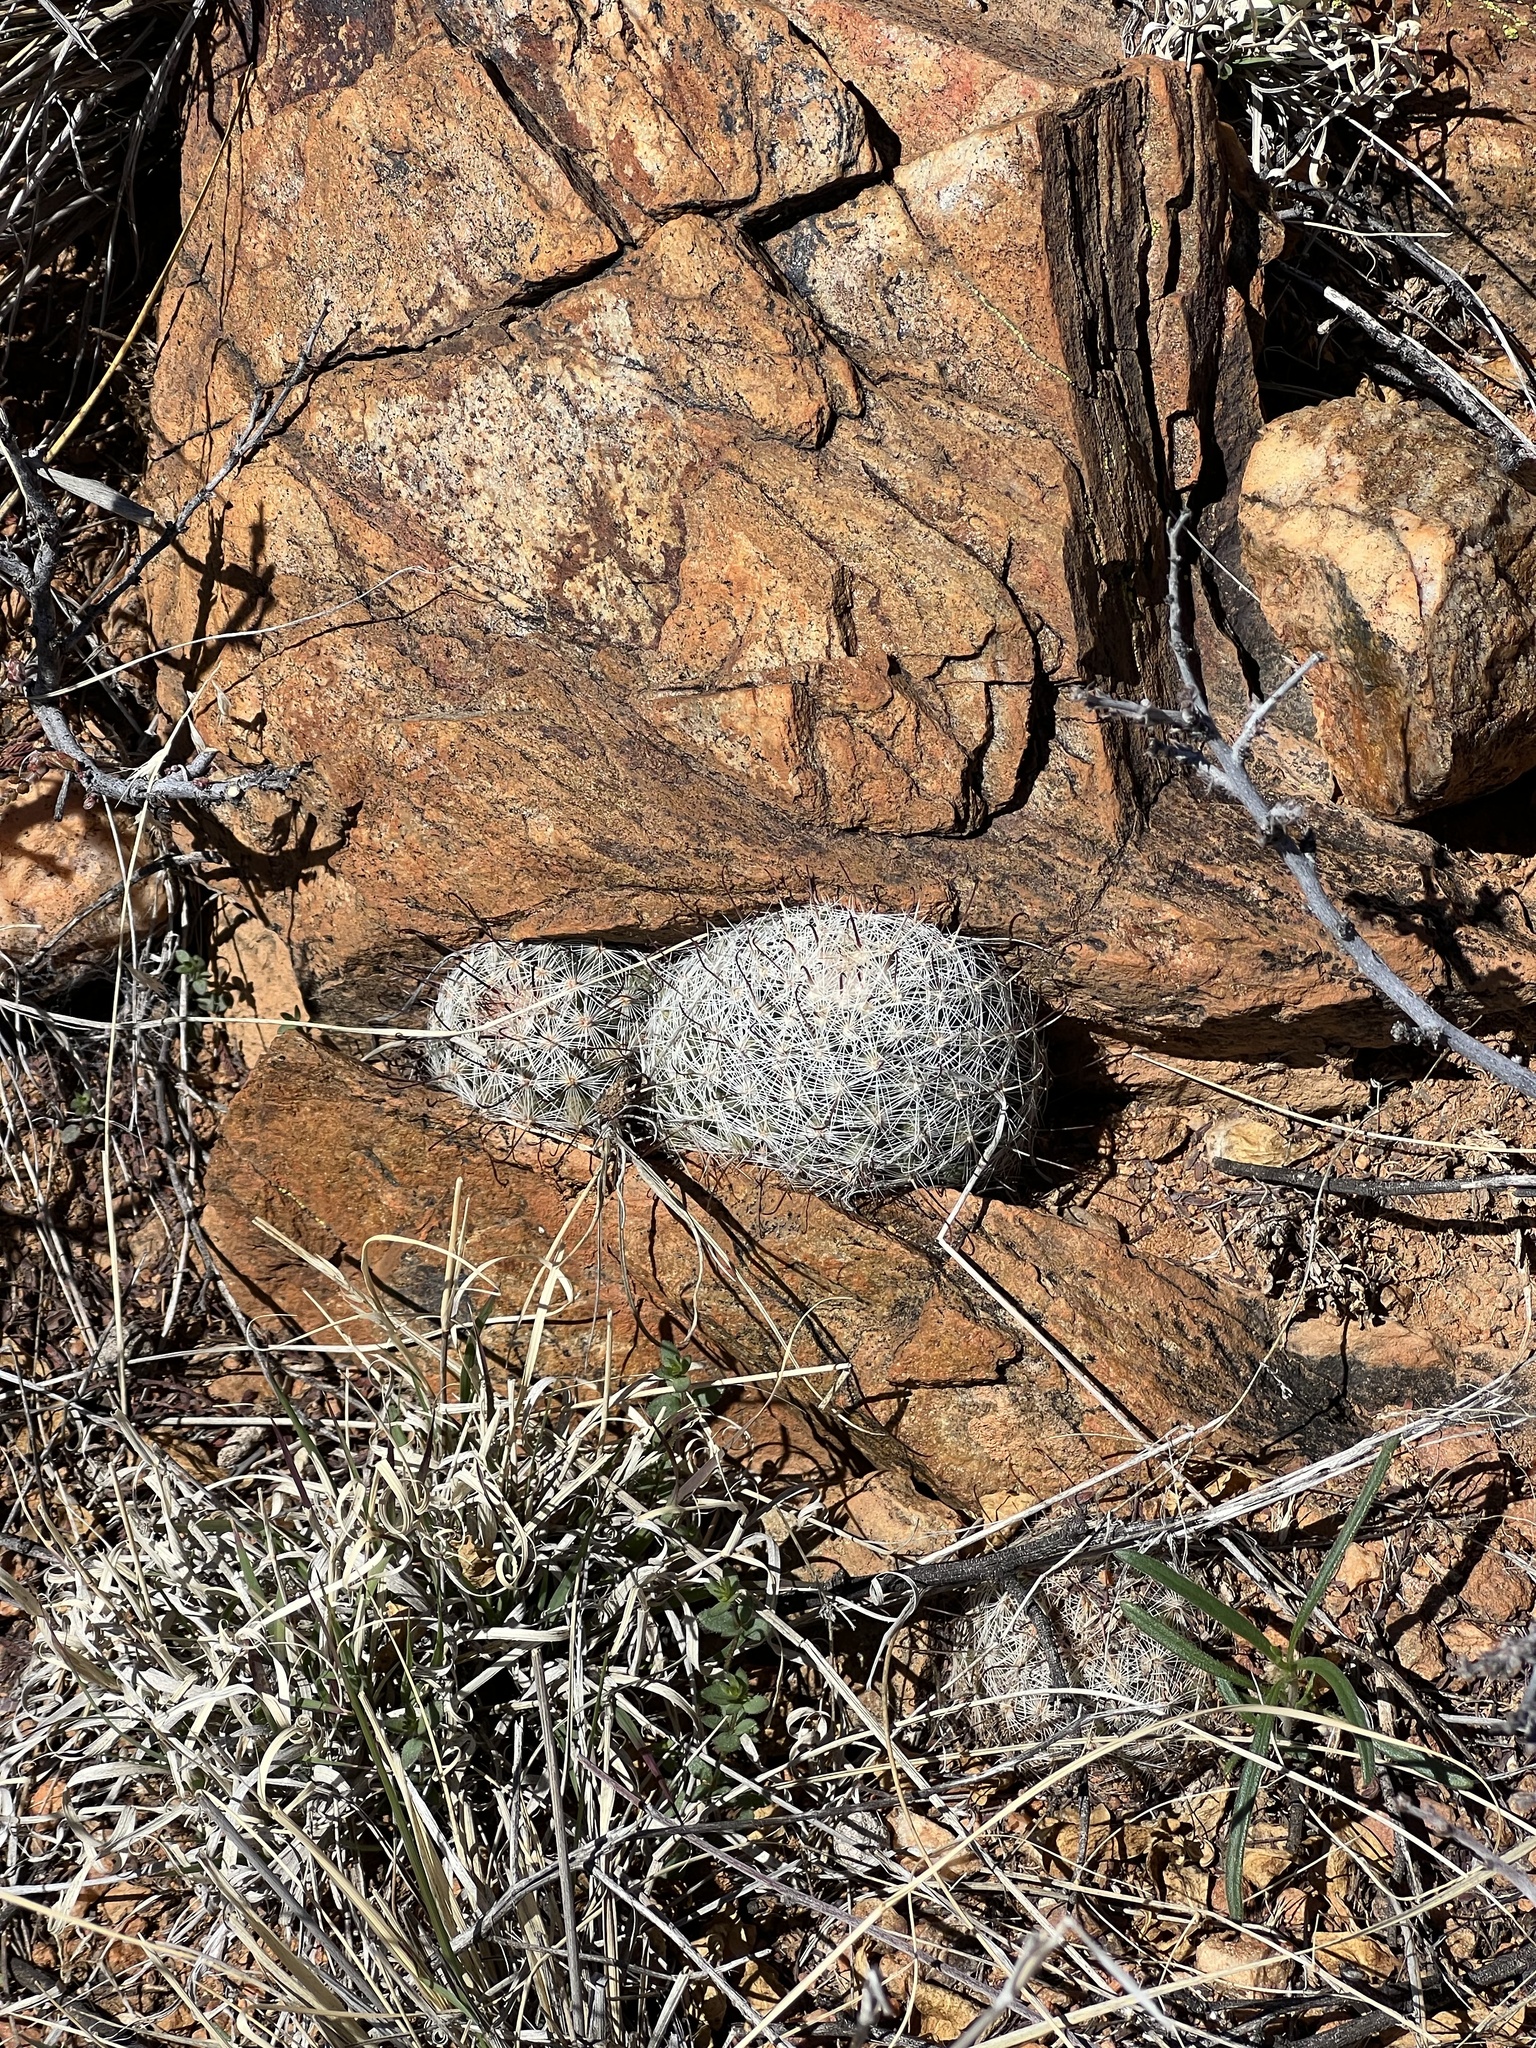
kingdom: Plantae
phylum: Tracheophyta
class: Magnoliopsida
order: Caryophyllales
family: Cactaceae
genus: Cochemiea
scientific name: Cochemiea grahamii
